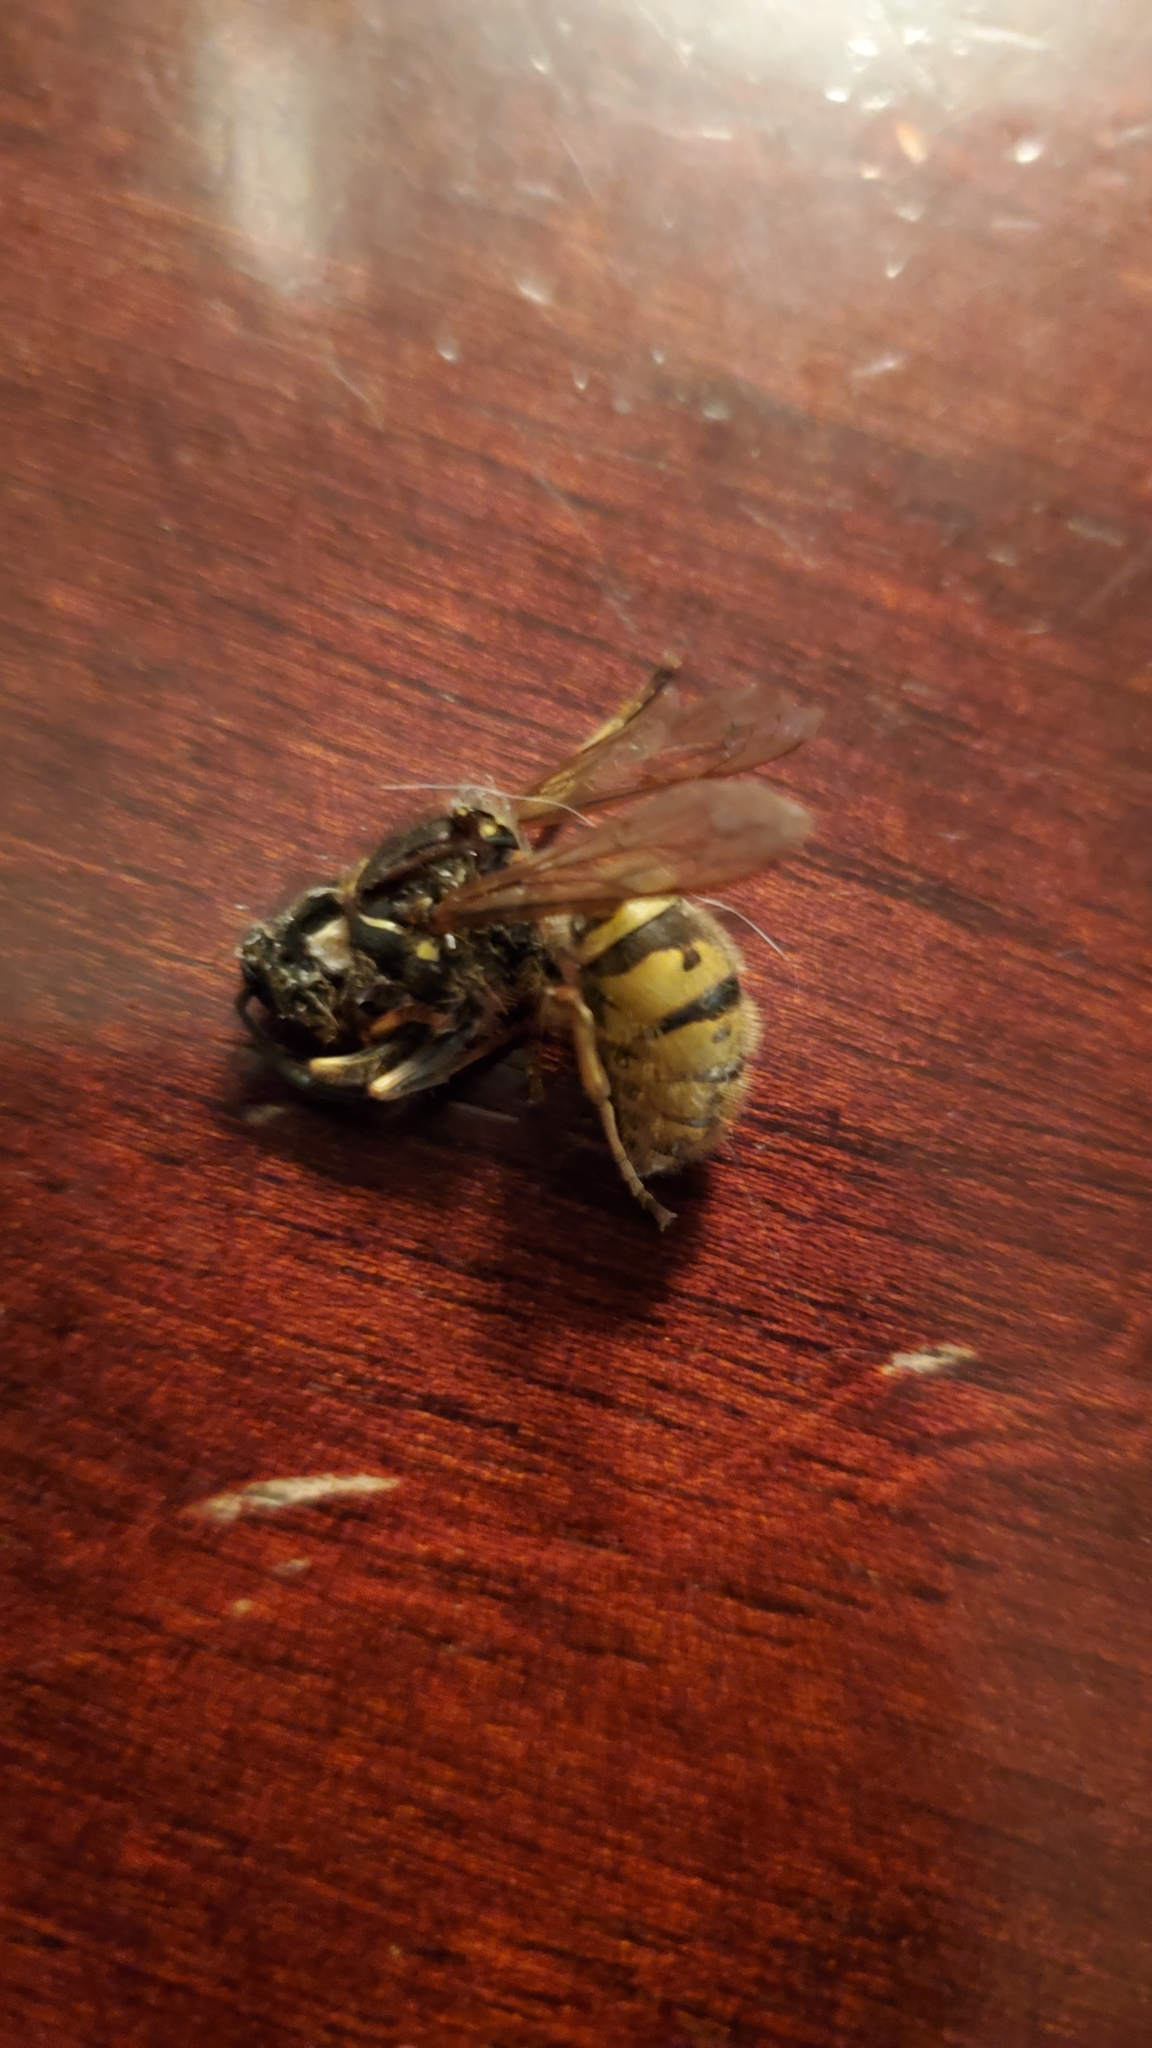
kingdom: Animalia
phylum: Arthropoda
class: Insecta
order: Hymenoptera
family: Vespidae
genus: Vespula
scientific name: Vespula vulgaris
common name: Common wasp
